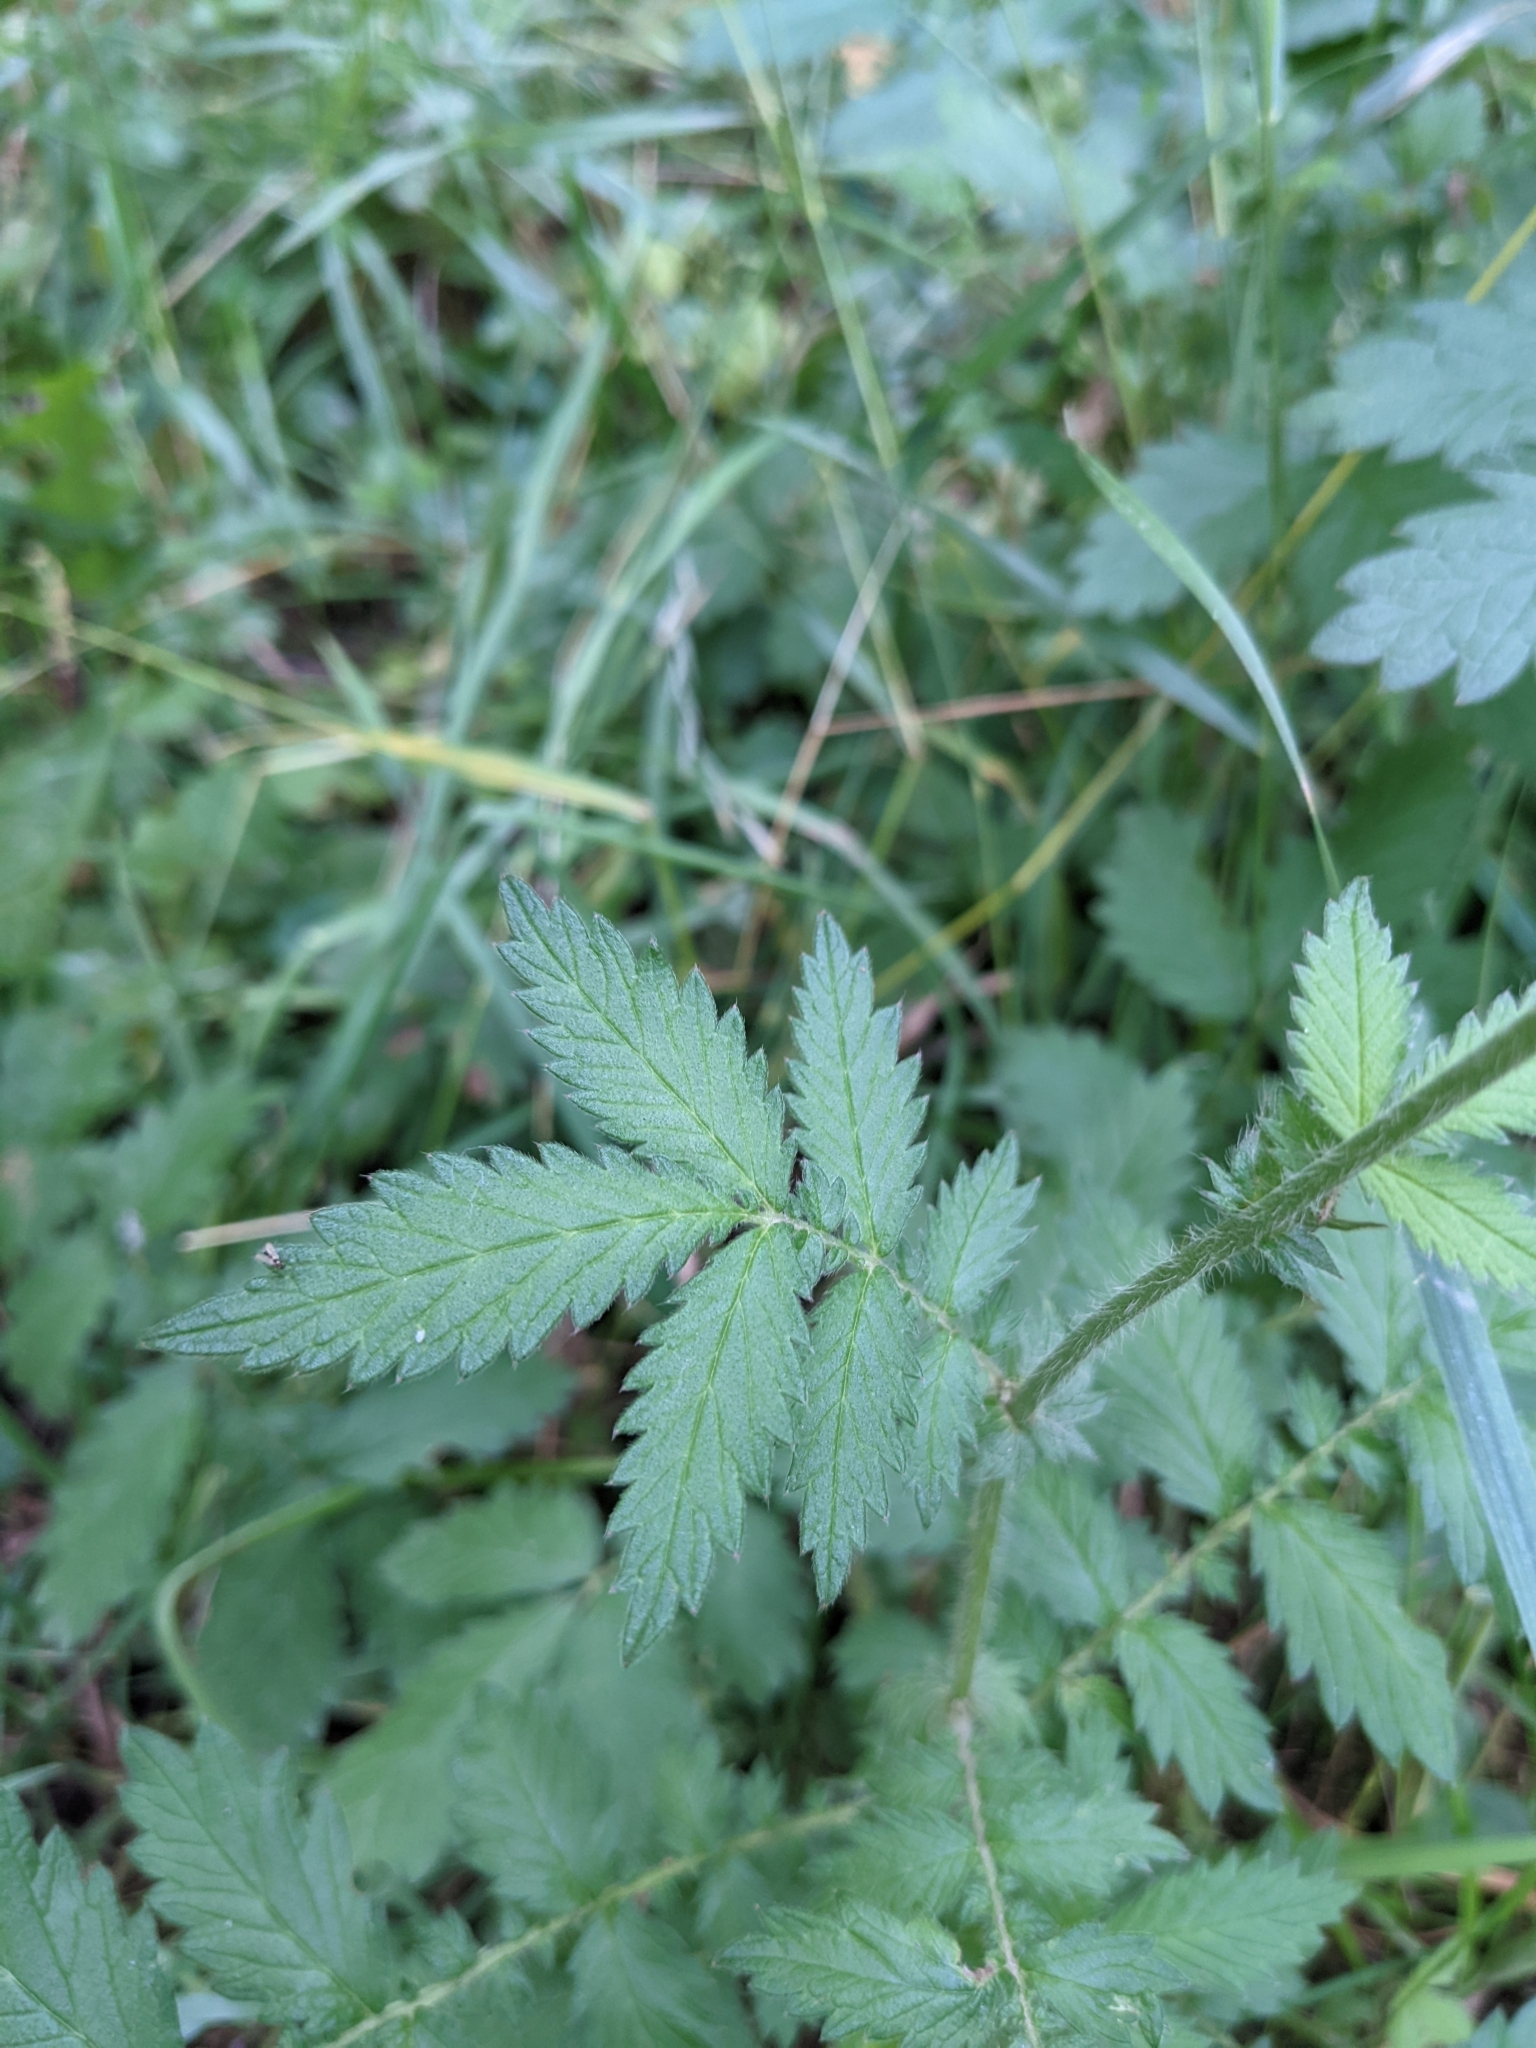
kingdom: Plantae
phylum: Tracheophyta
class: Magnoliopsida
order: Rosales
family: Rosaceae
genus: Agrimonia
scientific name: Agrimonia eupatoria
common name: Agrimony
